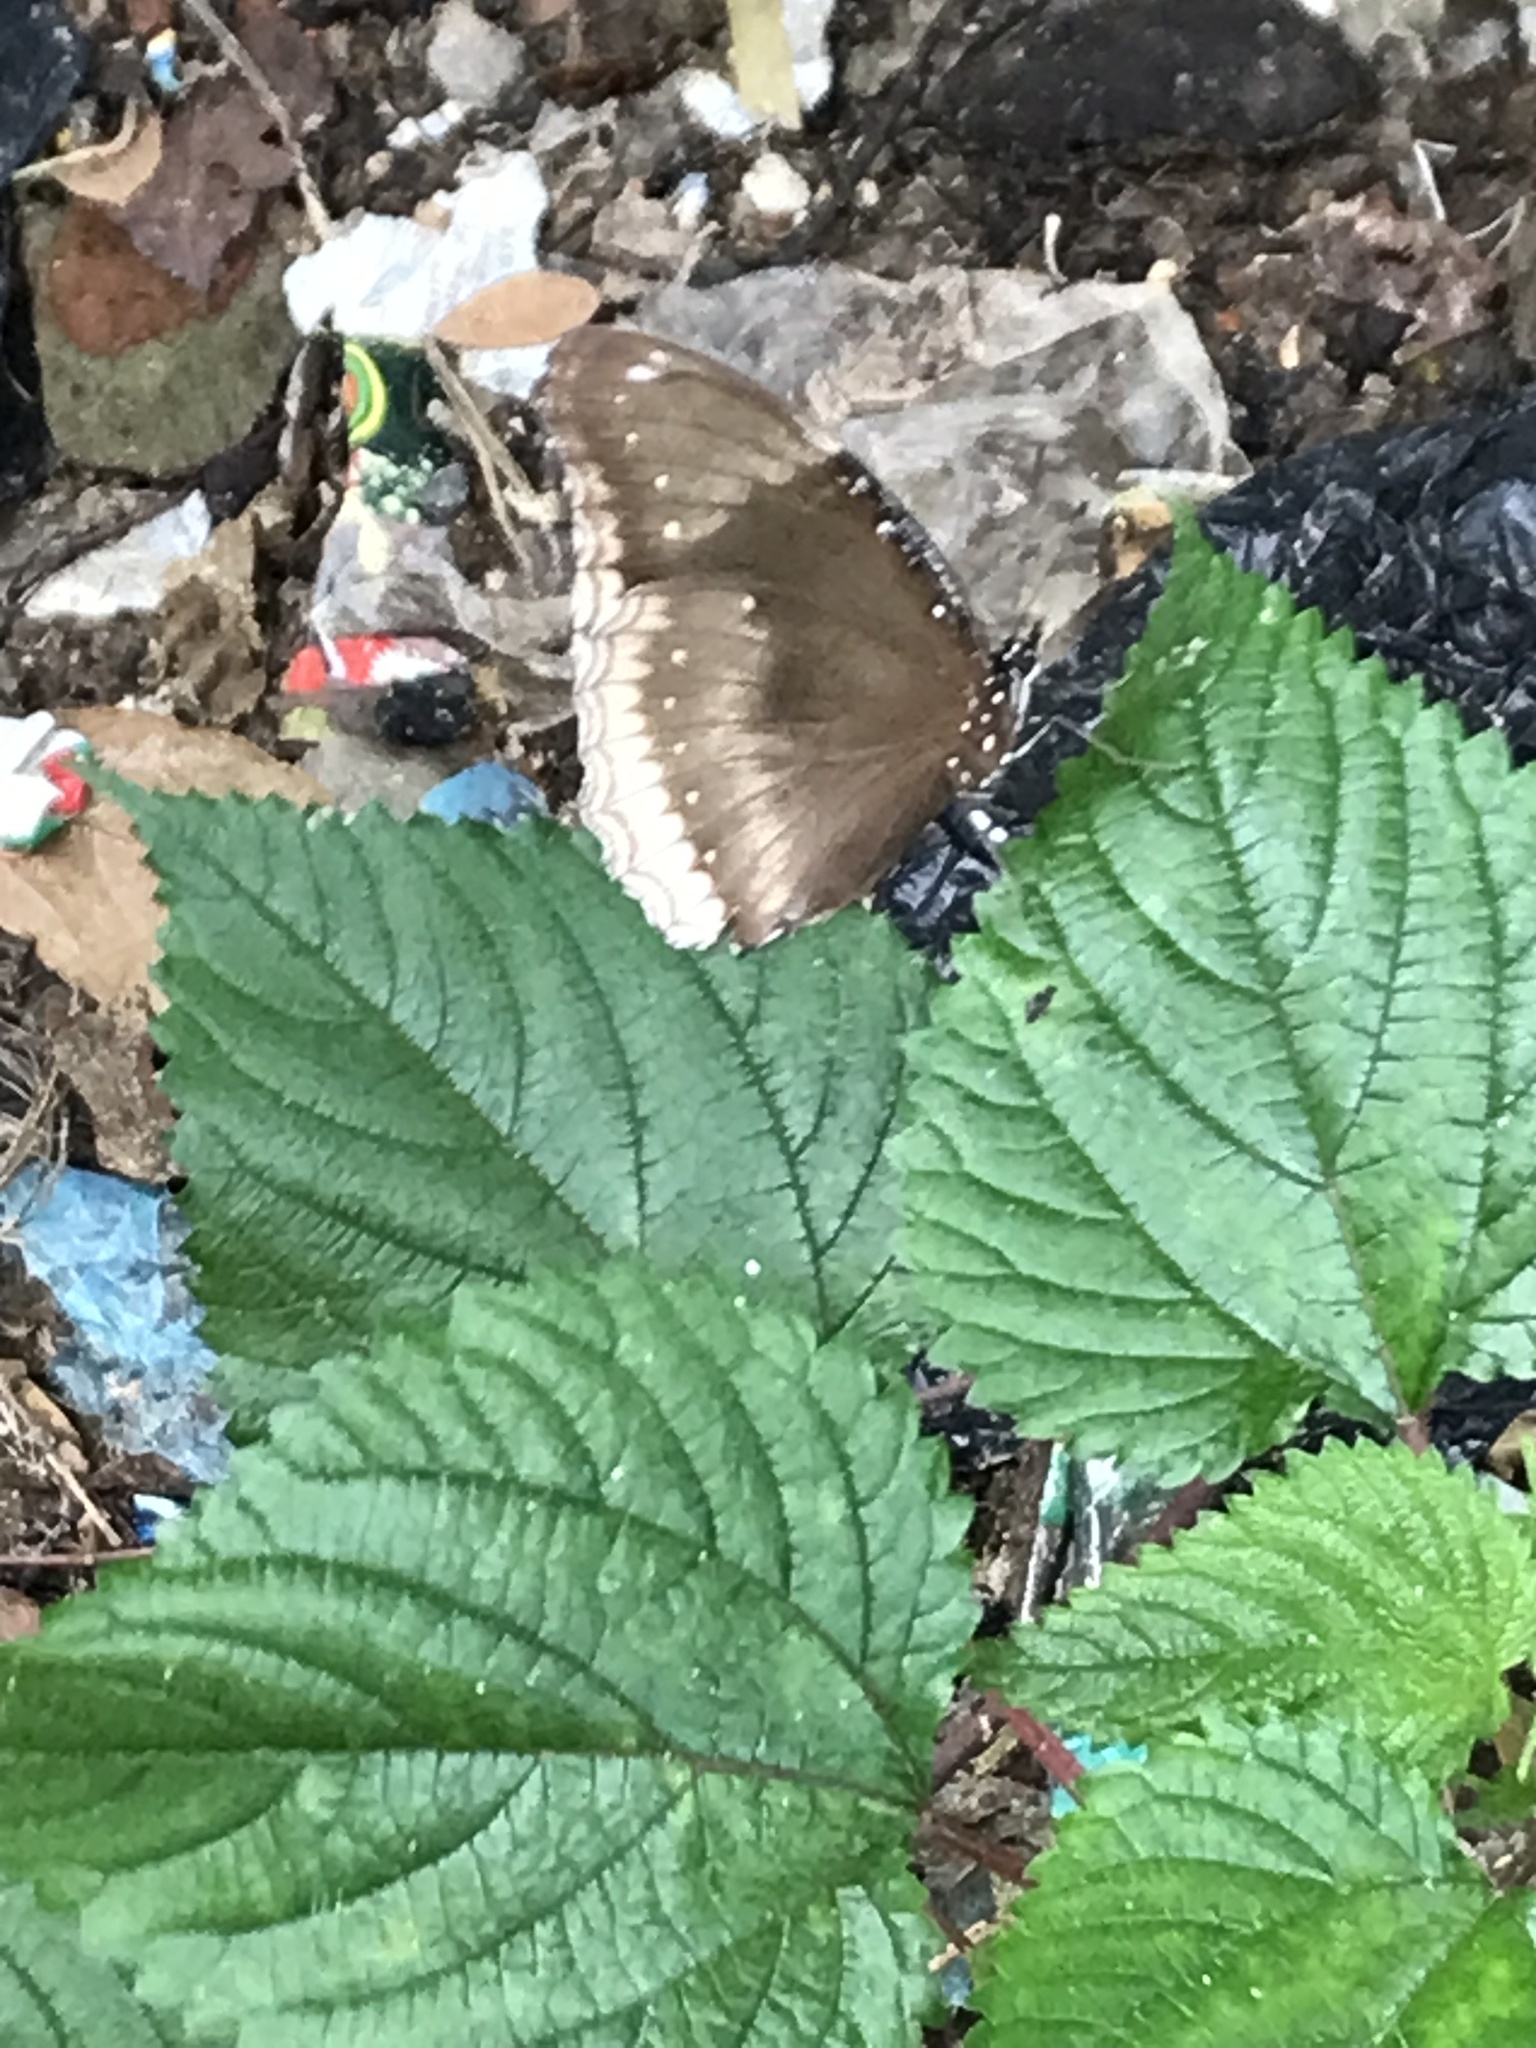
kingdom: Animalia
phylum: Arthropoda
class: Insecta
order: Lepidoptera
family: Nymphalidae
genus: Hypolimnas
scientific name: Hypolimnas bolina
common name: Great eggfly
